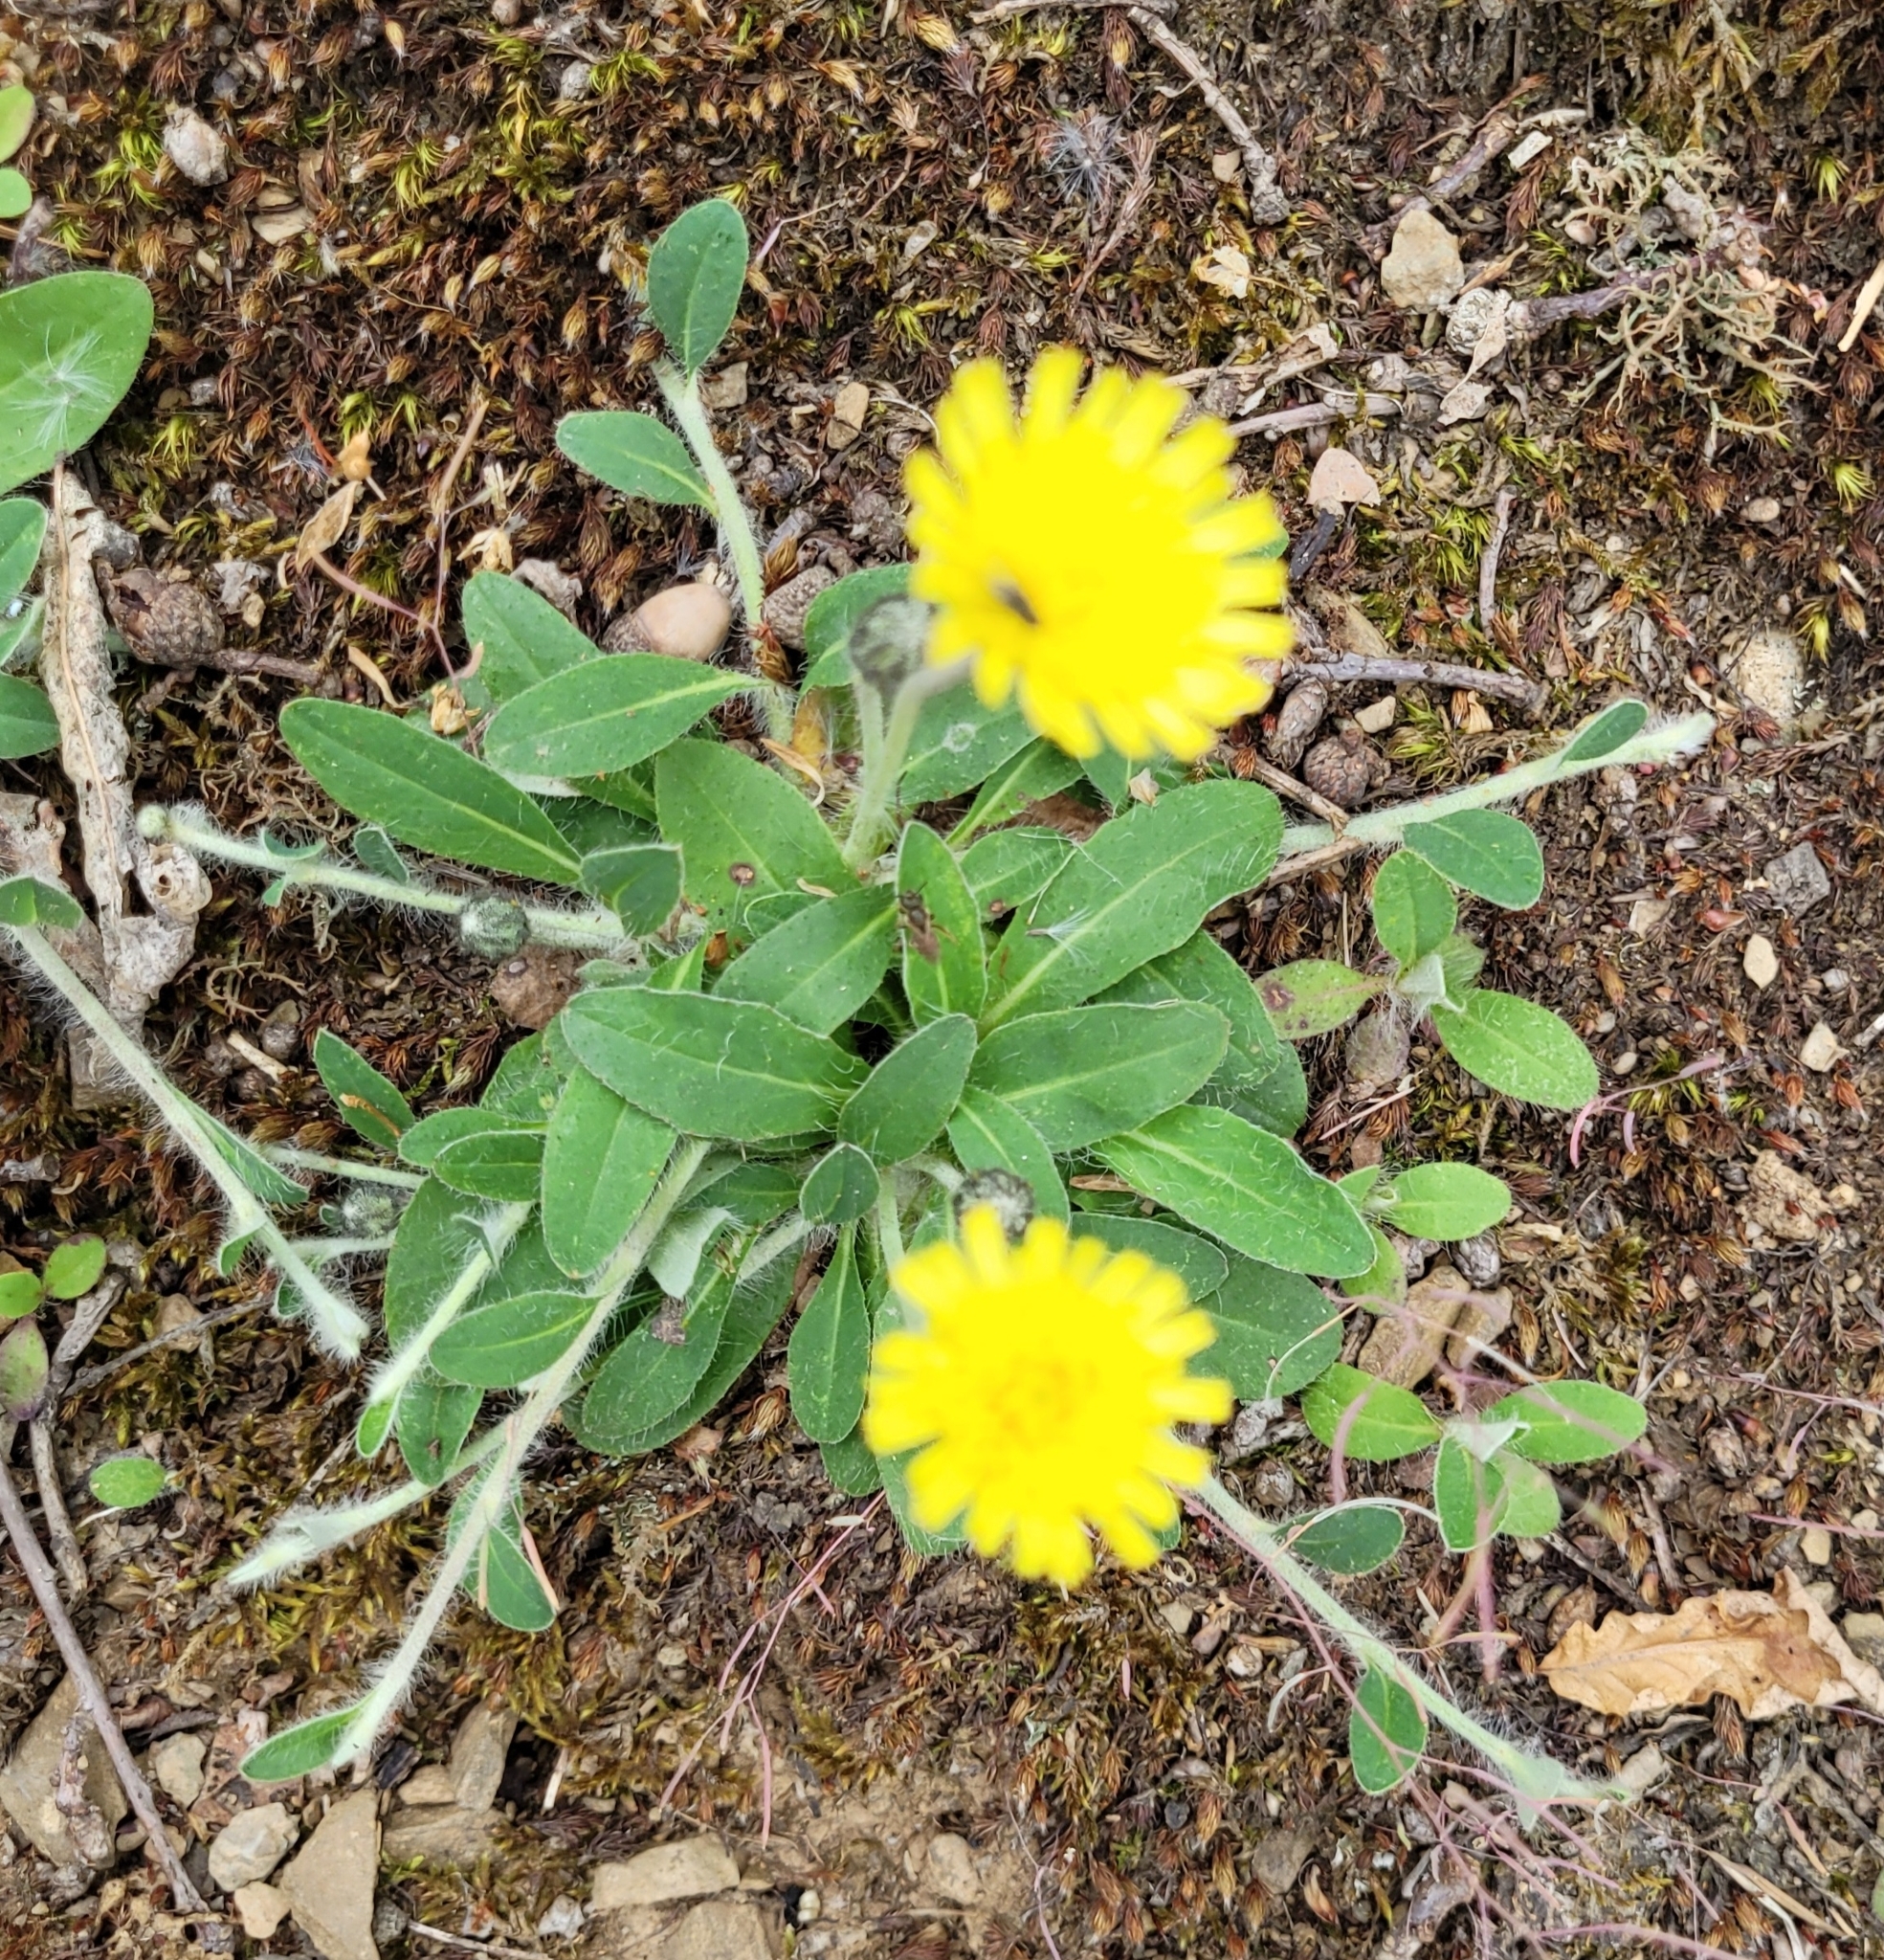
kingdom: Plantae
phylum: Tracheophyta
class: Magnoliopsida
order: Asterales
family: Asteraceae
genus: Pilosella
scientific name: Pilosella officinarum
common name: Mouse-ear hawkweed
